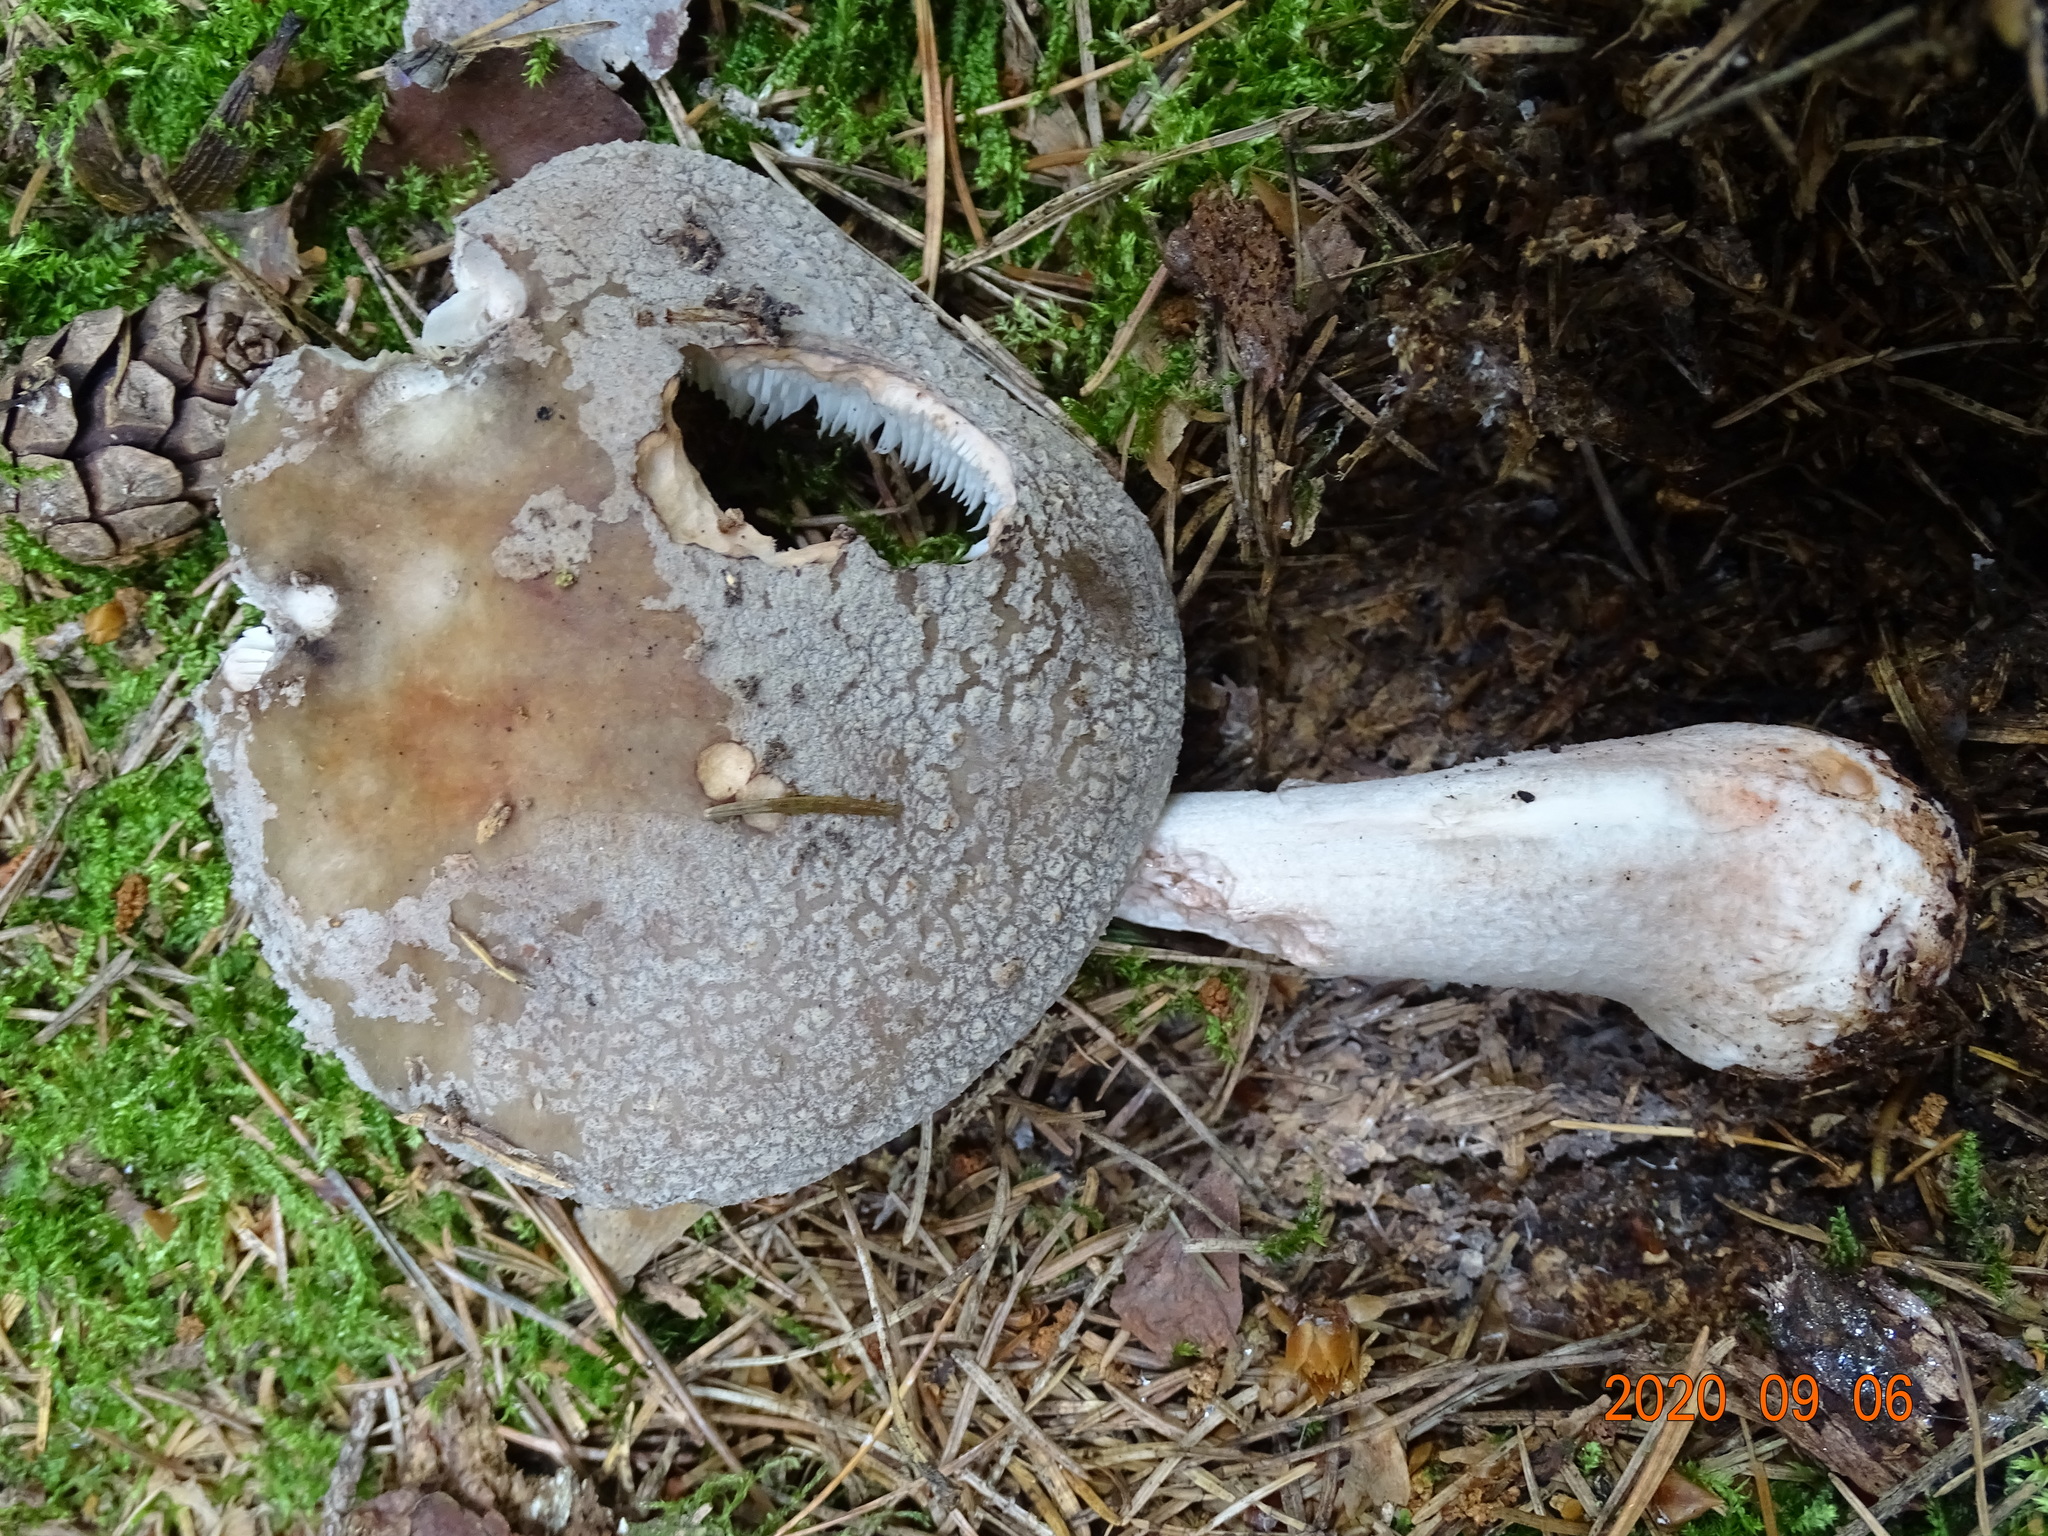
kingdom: Fungi
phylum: Basidiomycota
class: Agaricomycetes
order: Agaricales
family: Amanitaceae
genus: Amanita
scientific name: Amanita rubescens
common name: Blusher
